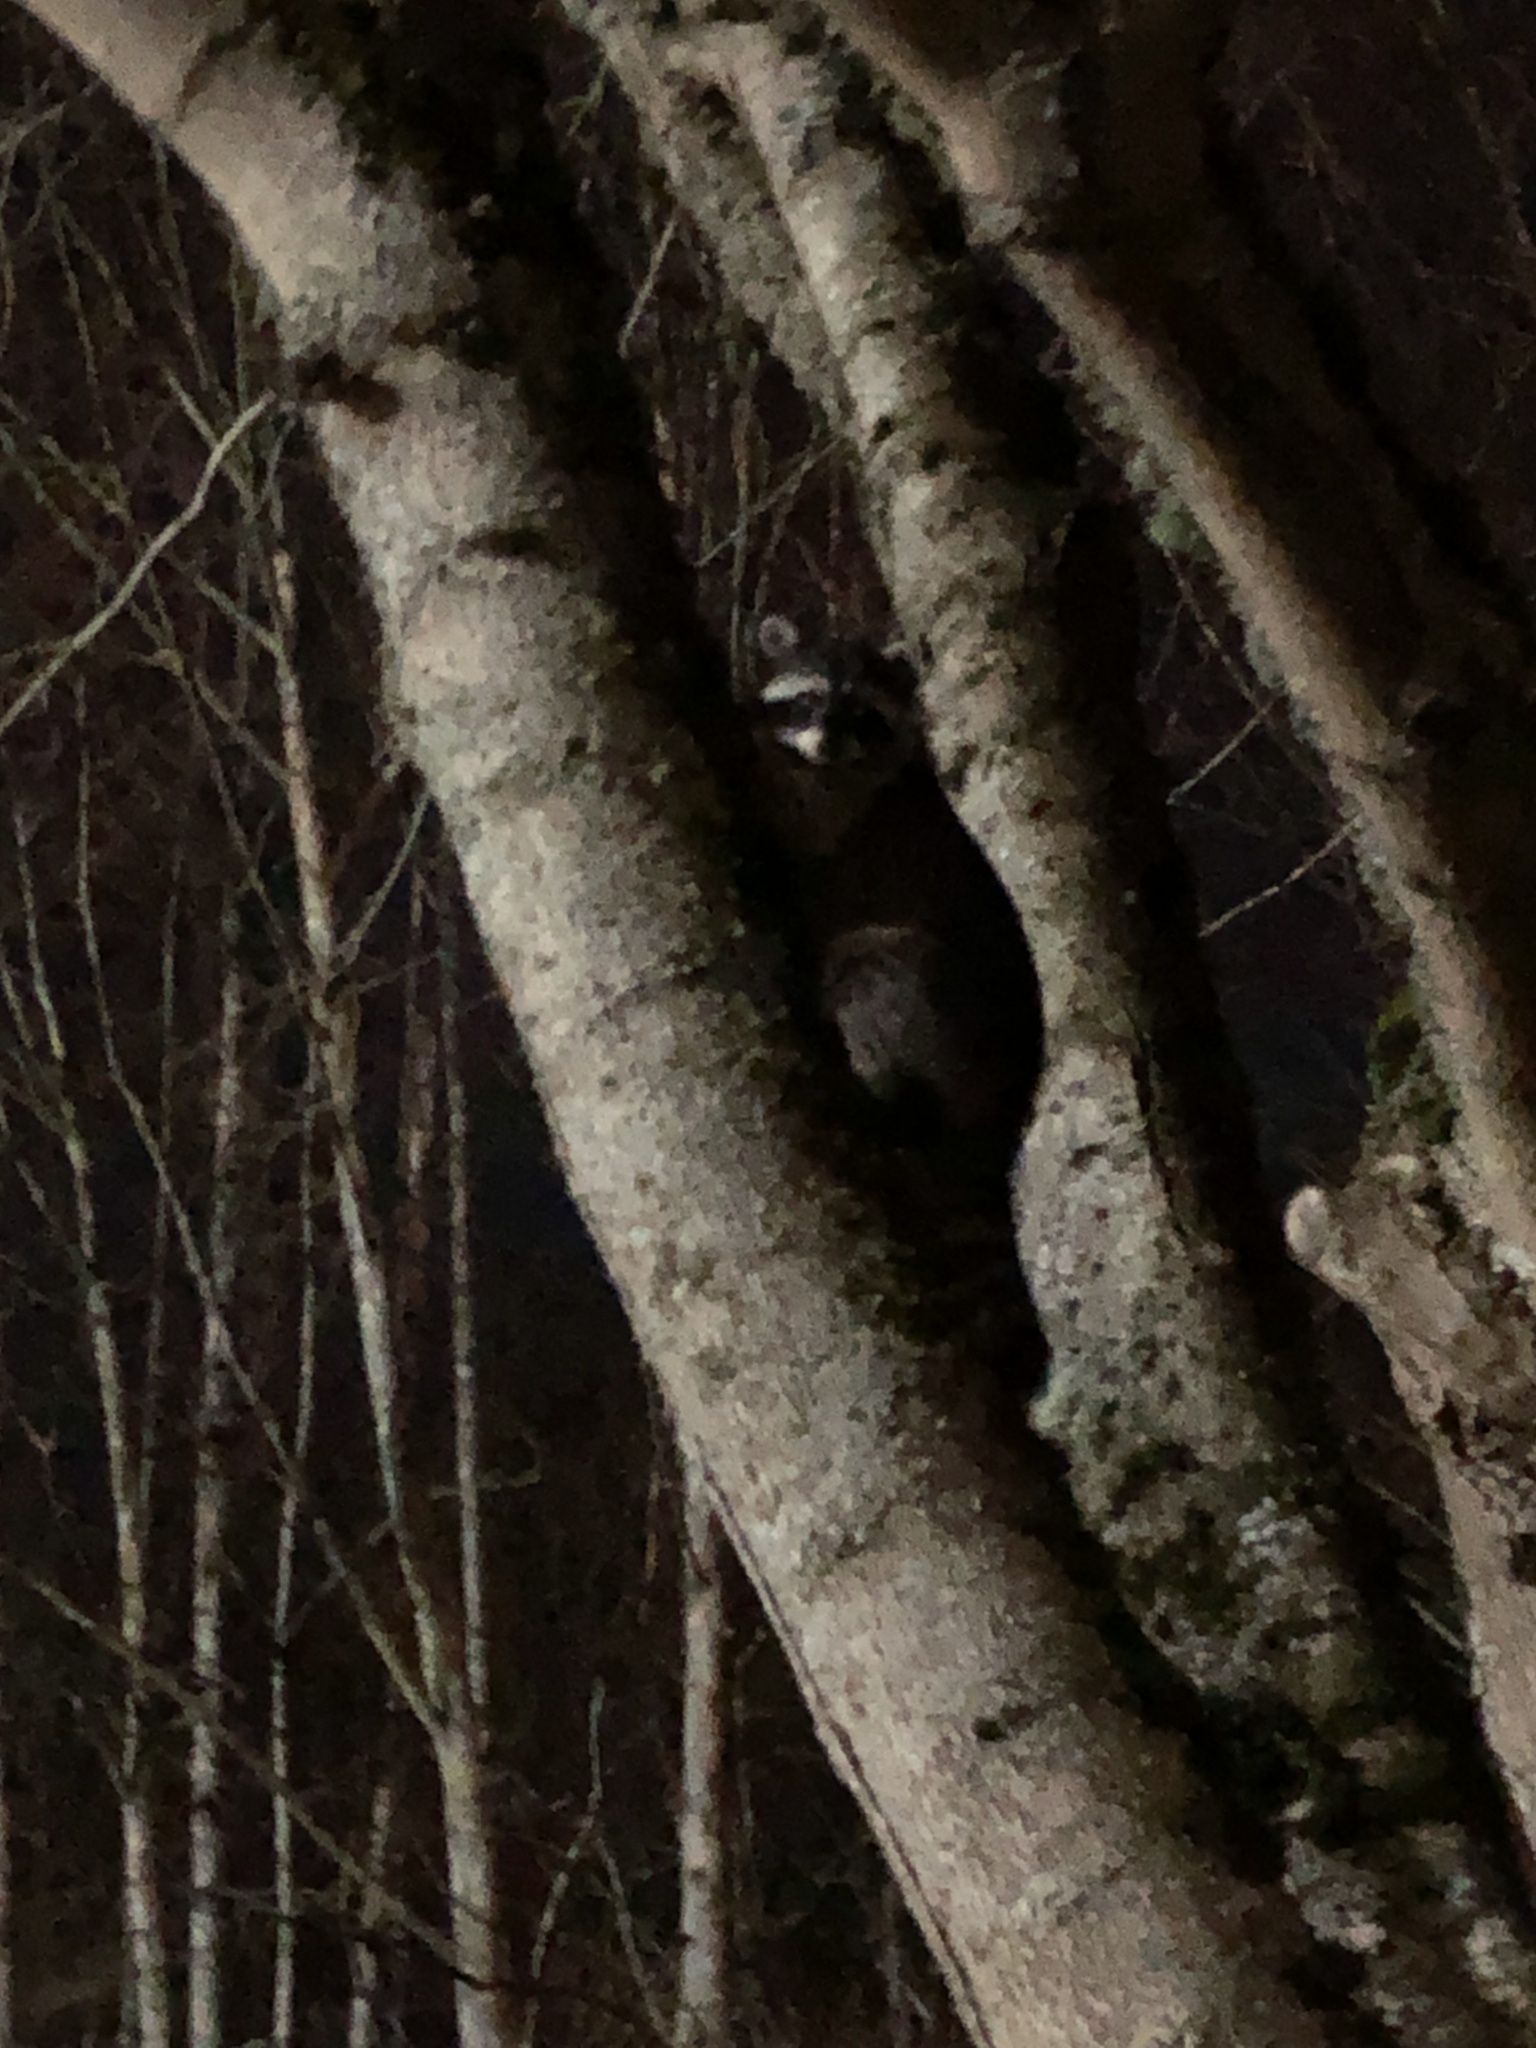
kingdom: Animalia
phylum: Chordata
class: Mammalia
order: Carnivora
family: Procyonidae
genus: Procyon
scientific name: Procyon lotor
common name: Raccoon
